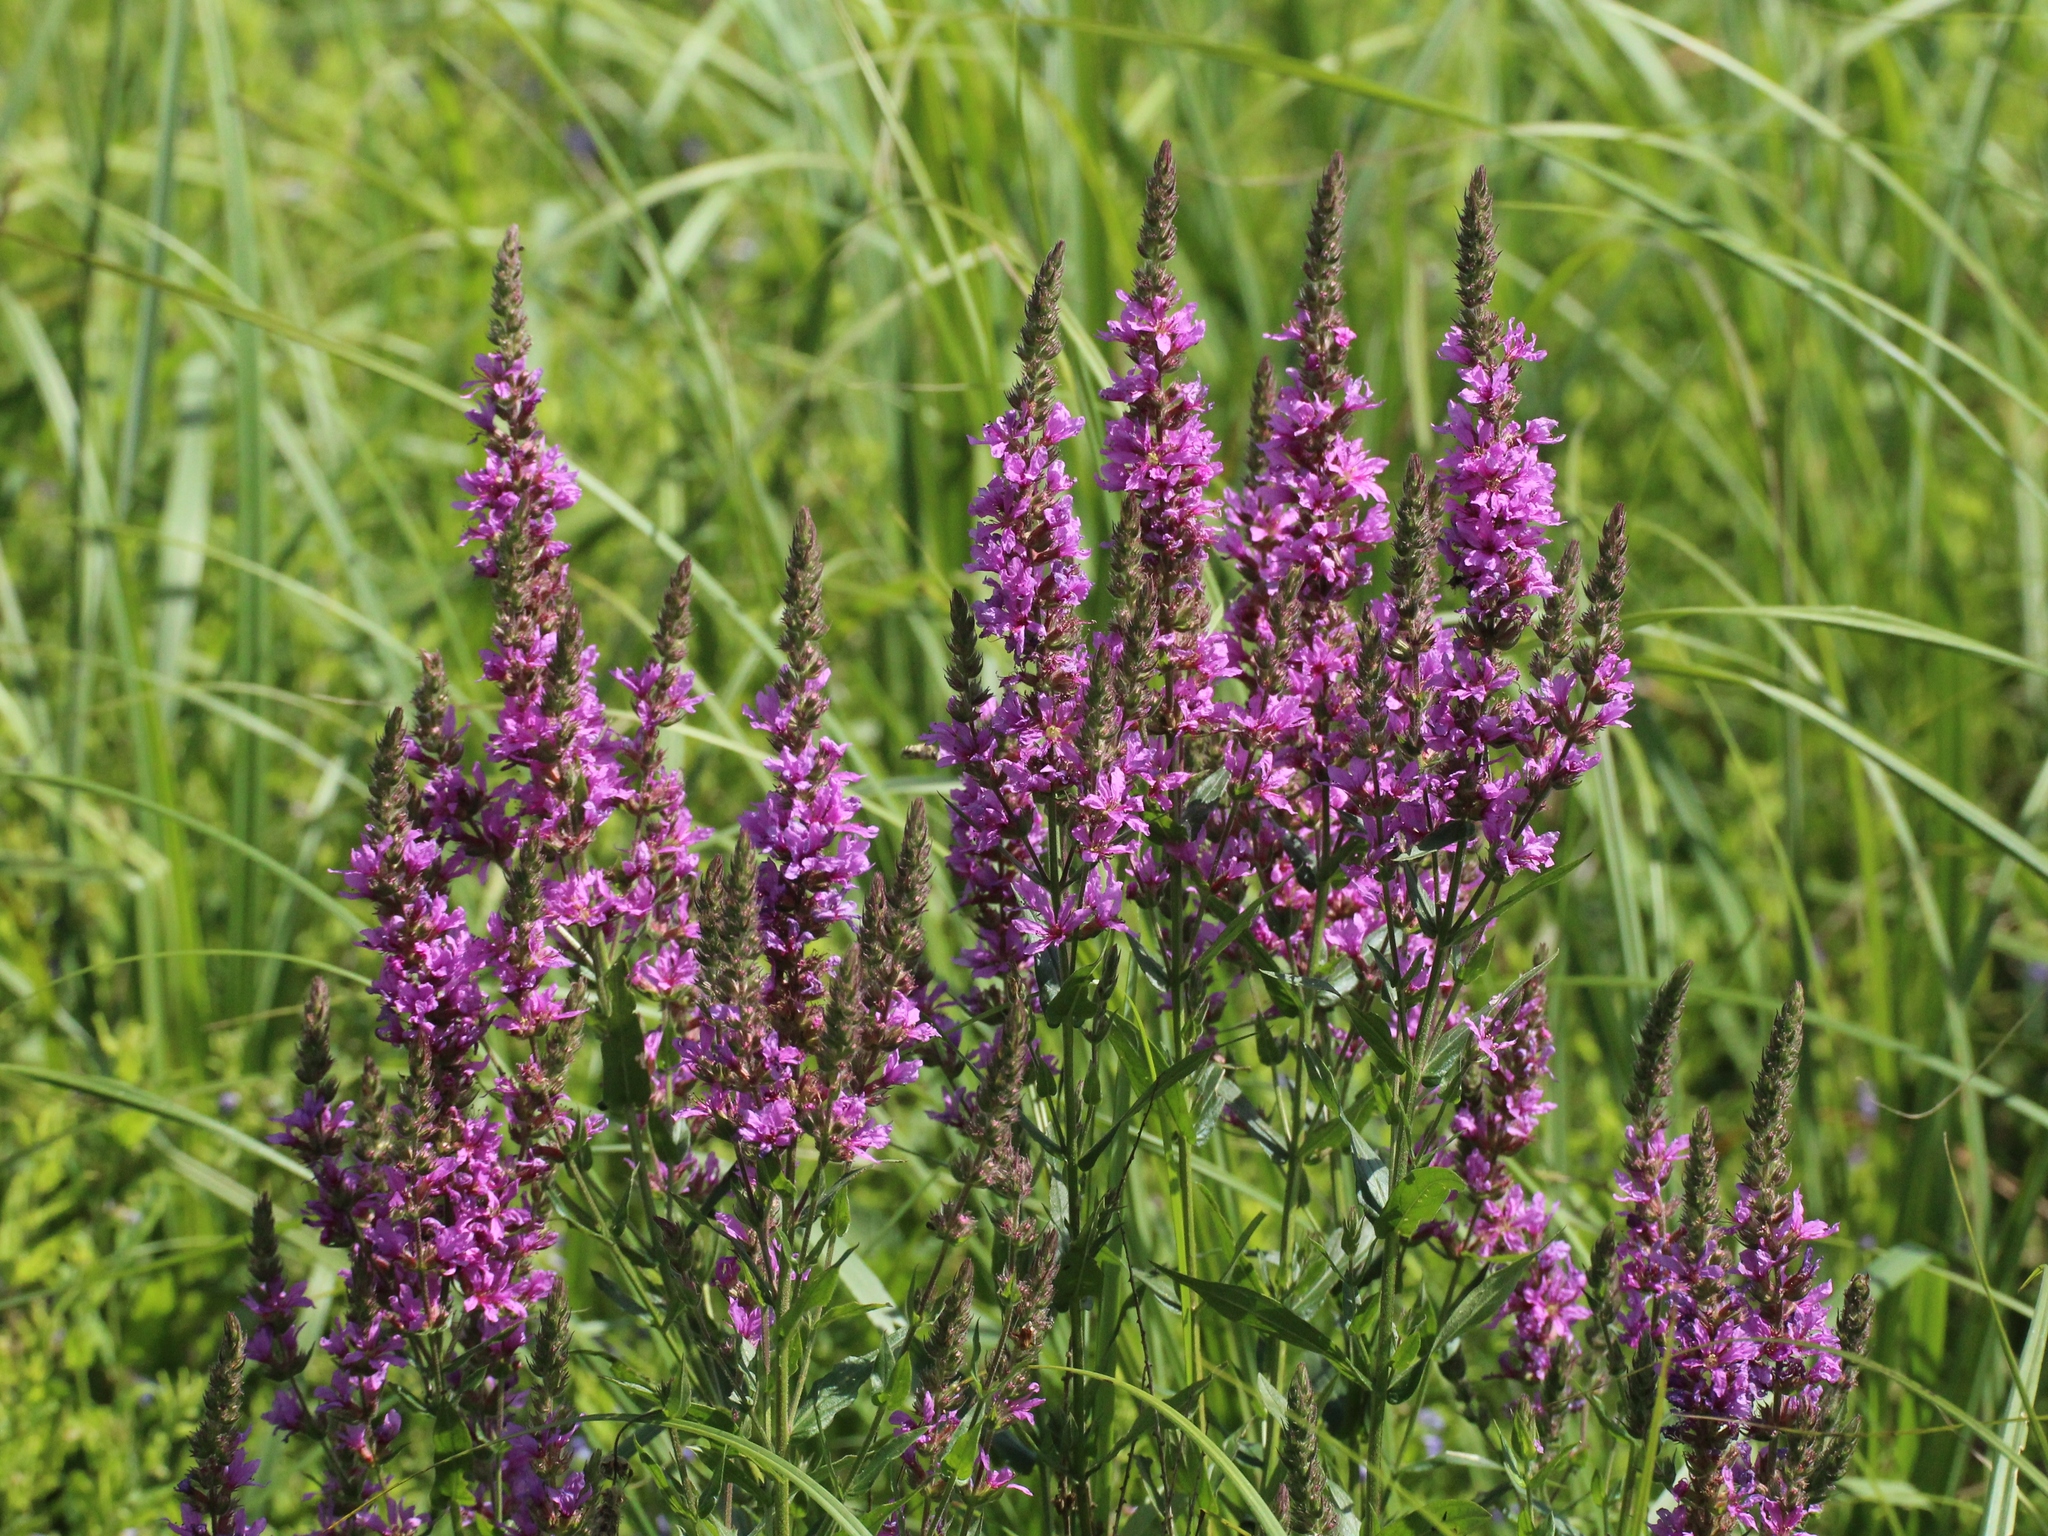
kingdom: Plantae
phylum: Tracheophyta
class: Magnoliopsida
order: Myrtales
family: Lythraceae
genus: Lythrum
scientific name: Lythrum salicaria
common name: Purple loosestrife
